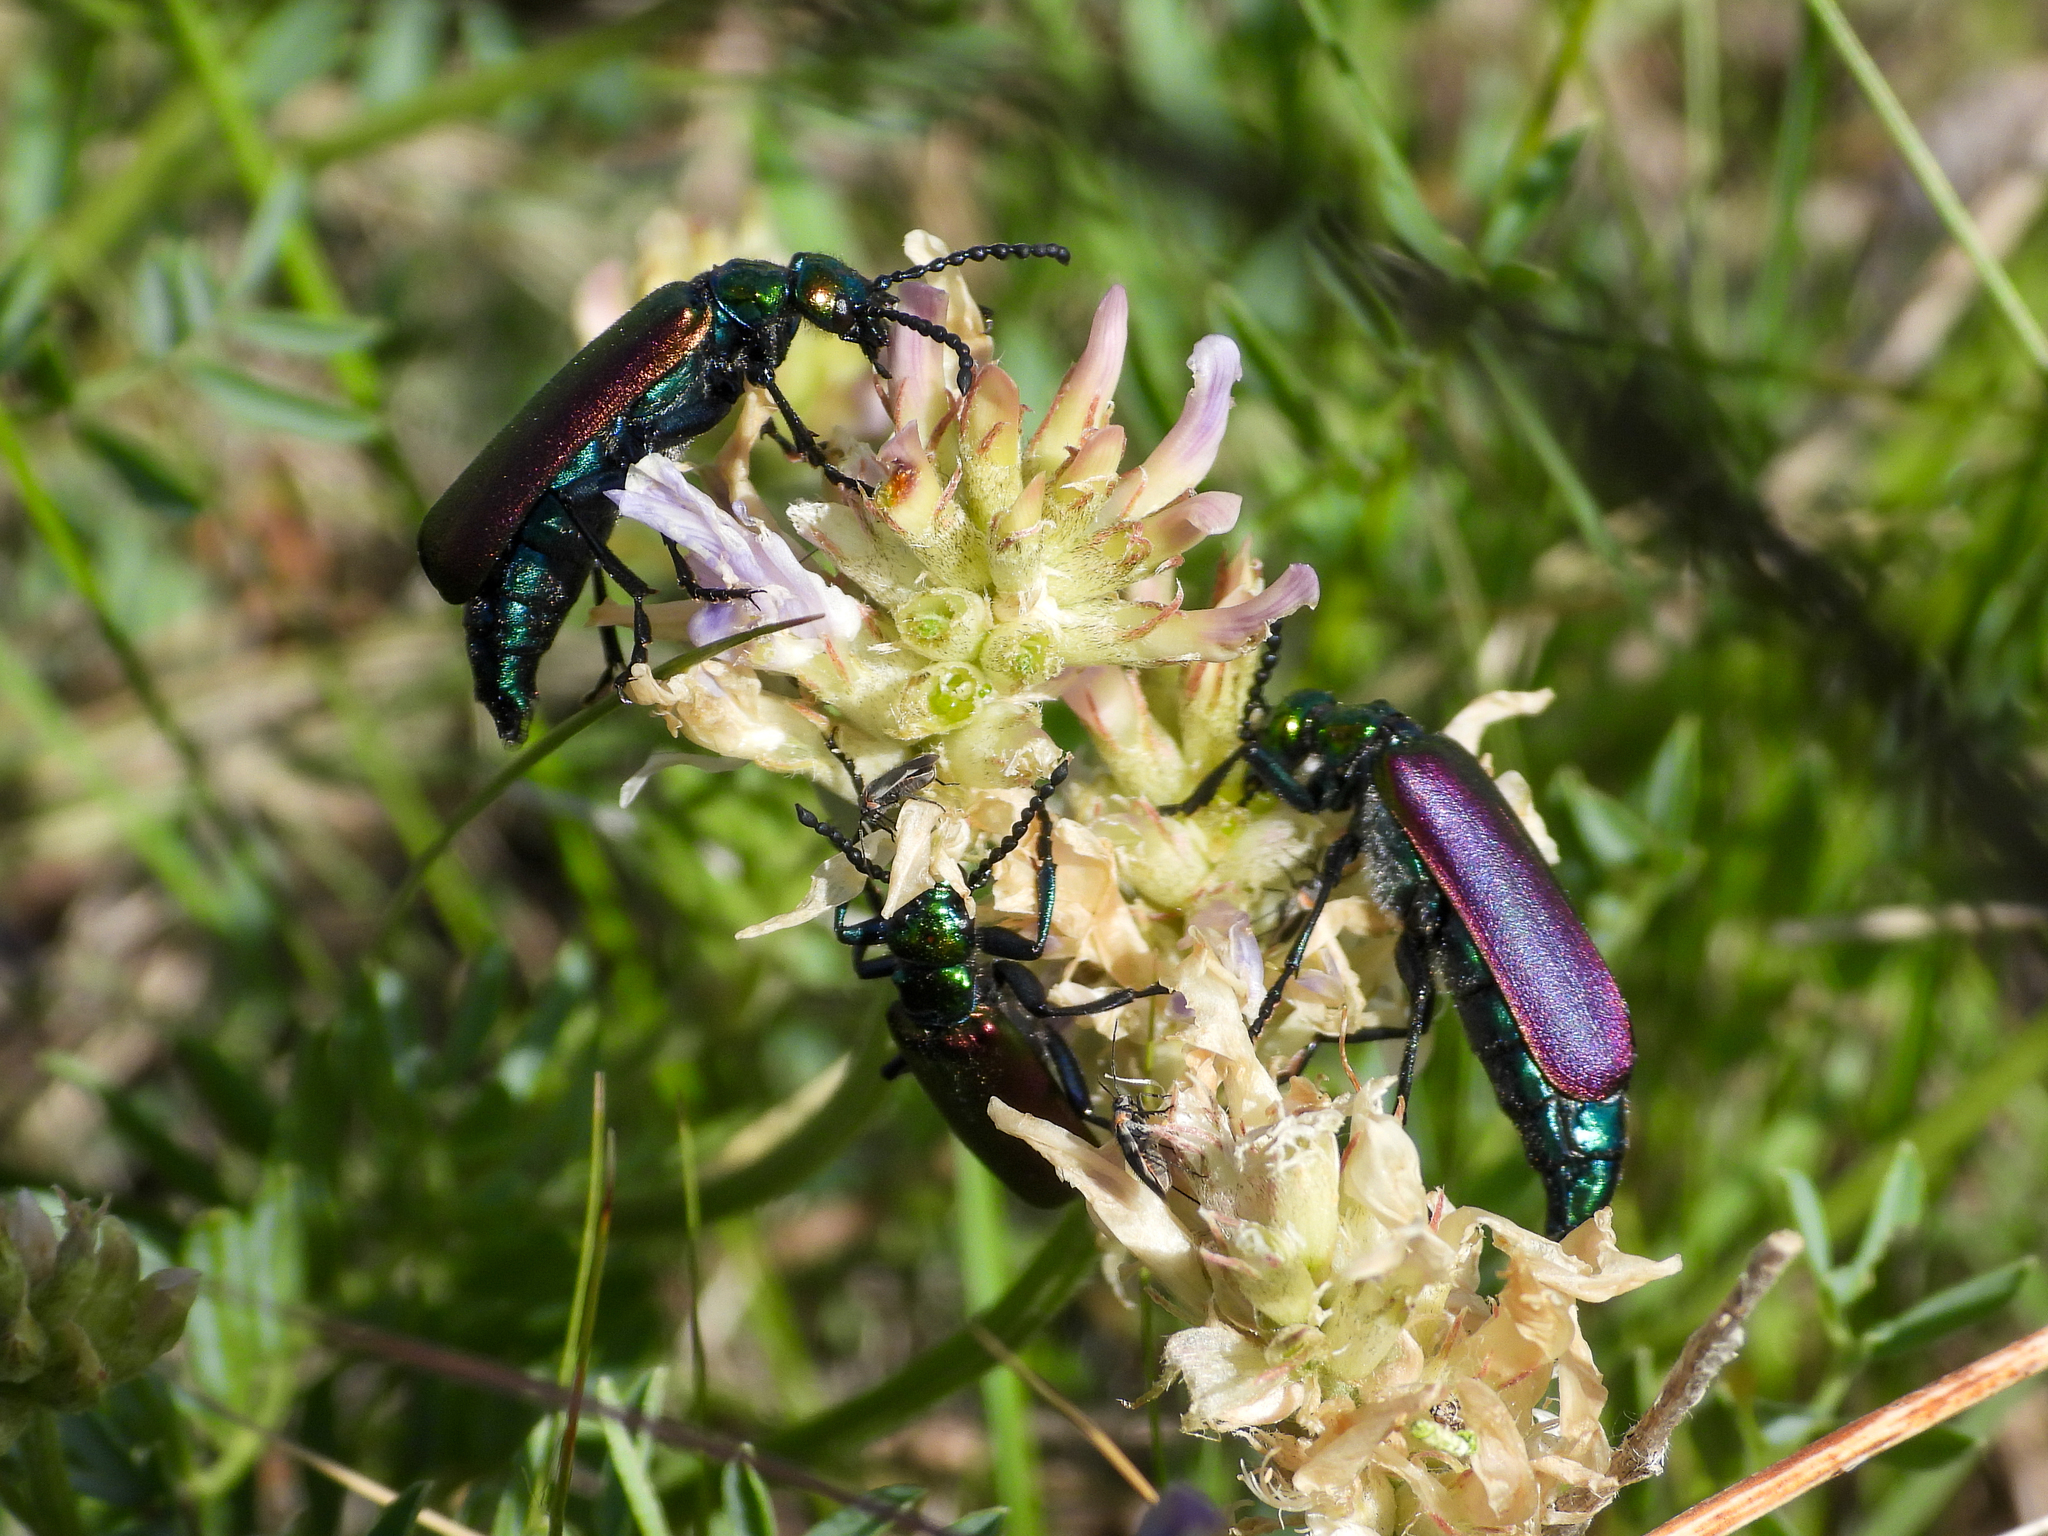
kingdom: Animalia
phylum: Arthropoda
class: Insecta
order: Coleoptera
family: Meloidae
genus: Lytta
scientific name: Lytta nuttallii
